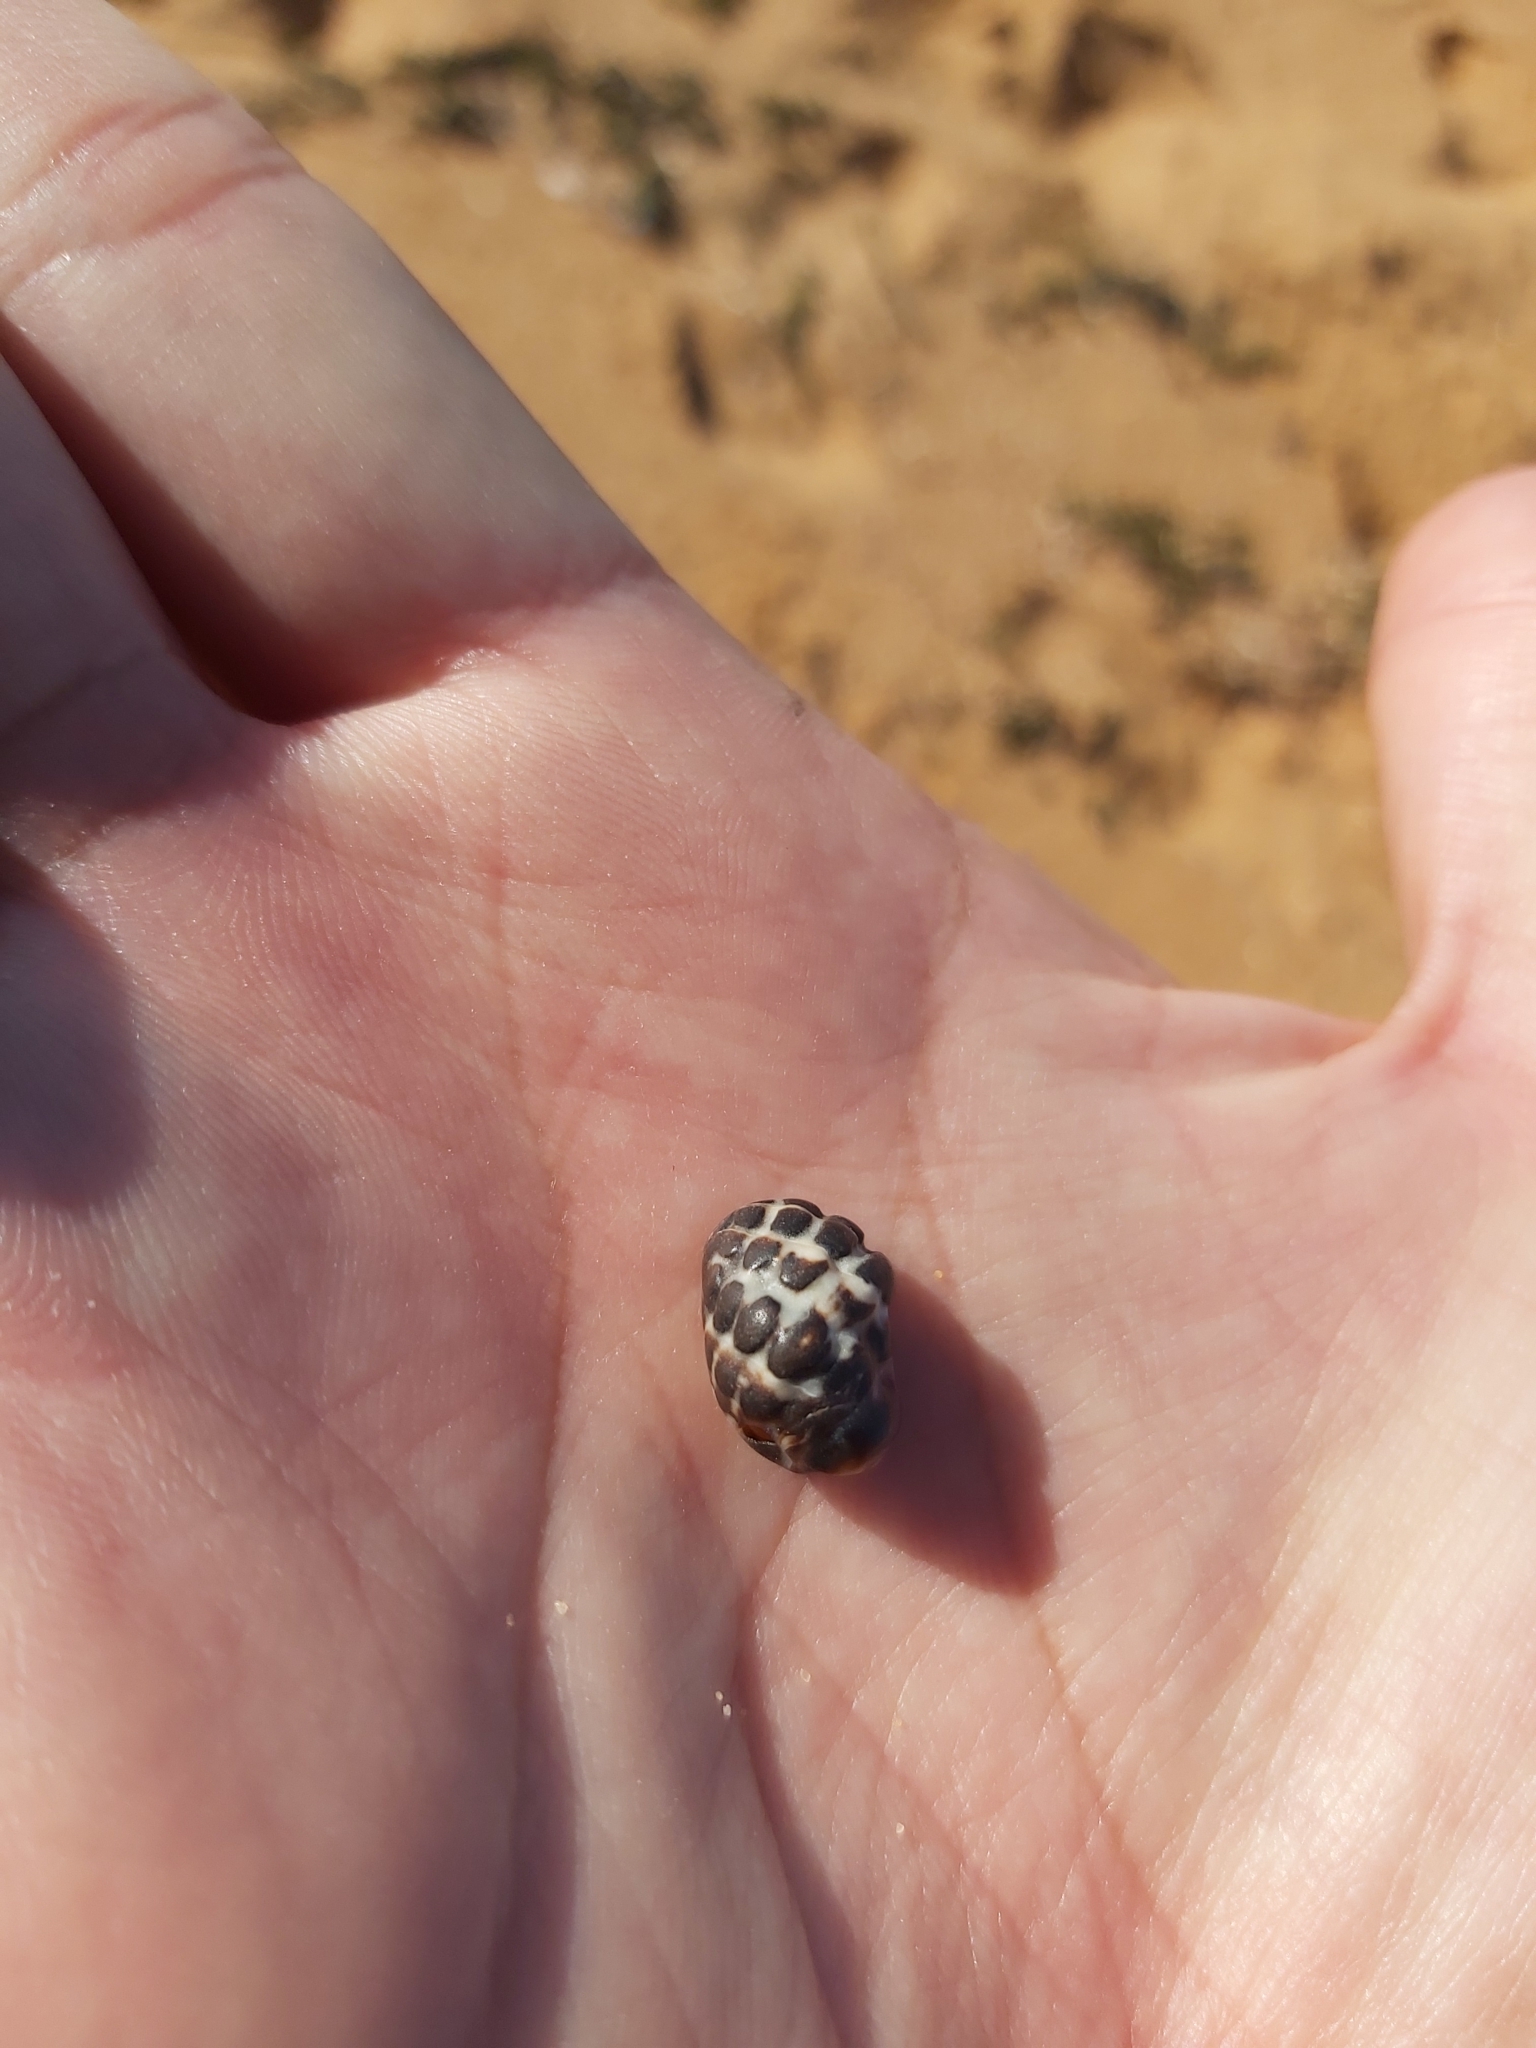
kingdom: Animalia
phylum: Mollusca
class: Gastropoda
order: Neogastropoda
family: Muricidae
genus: Tenguella
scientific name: Tenguella marginalba
